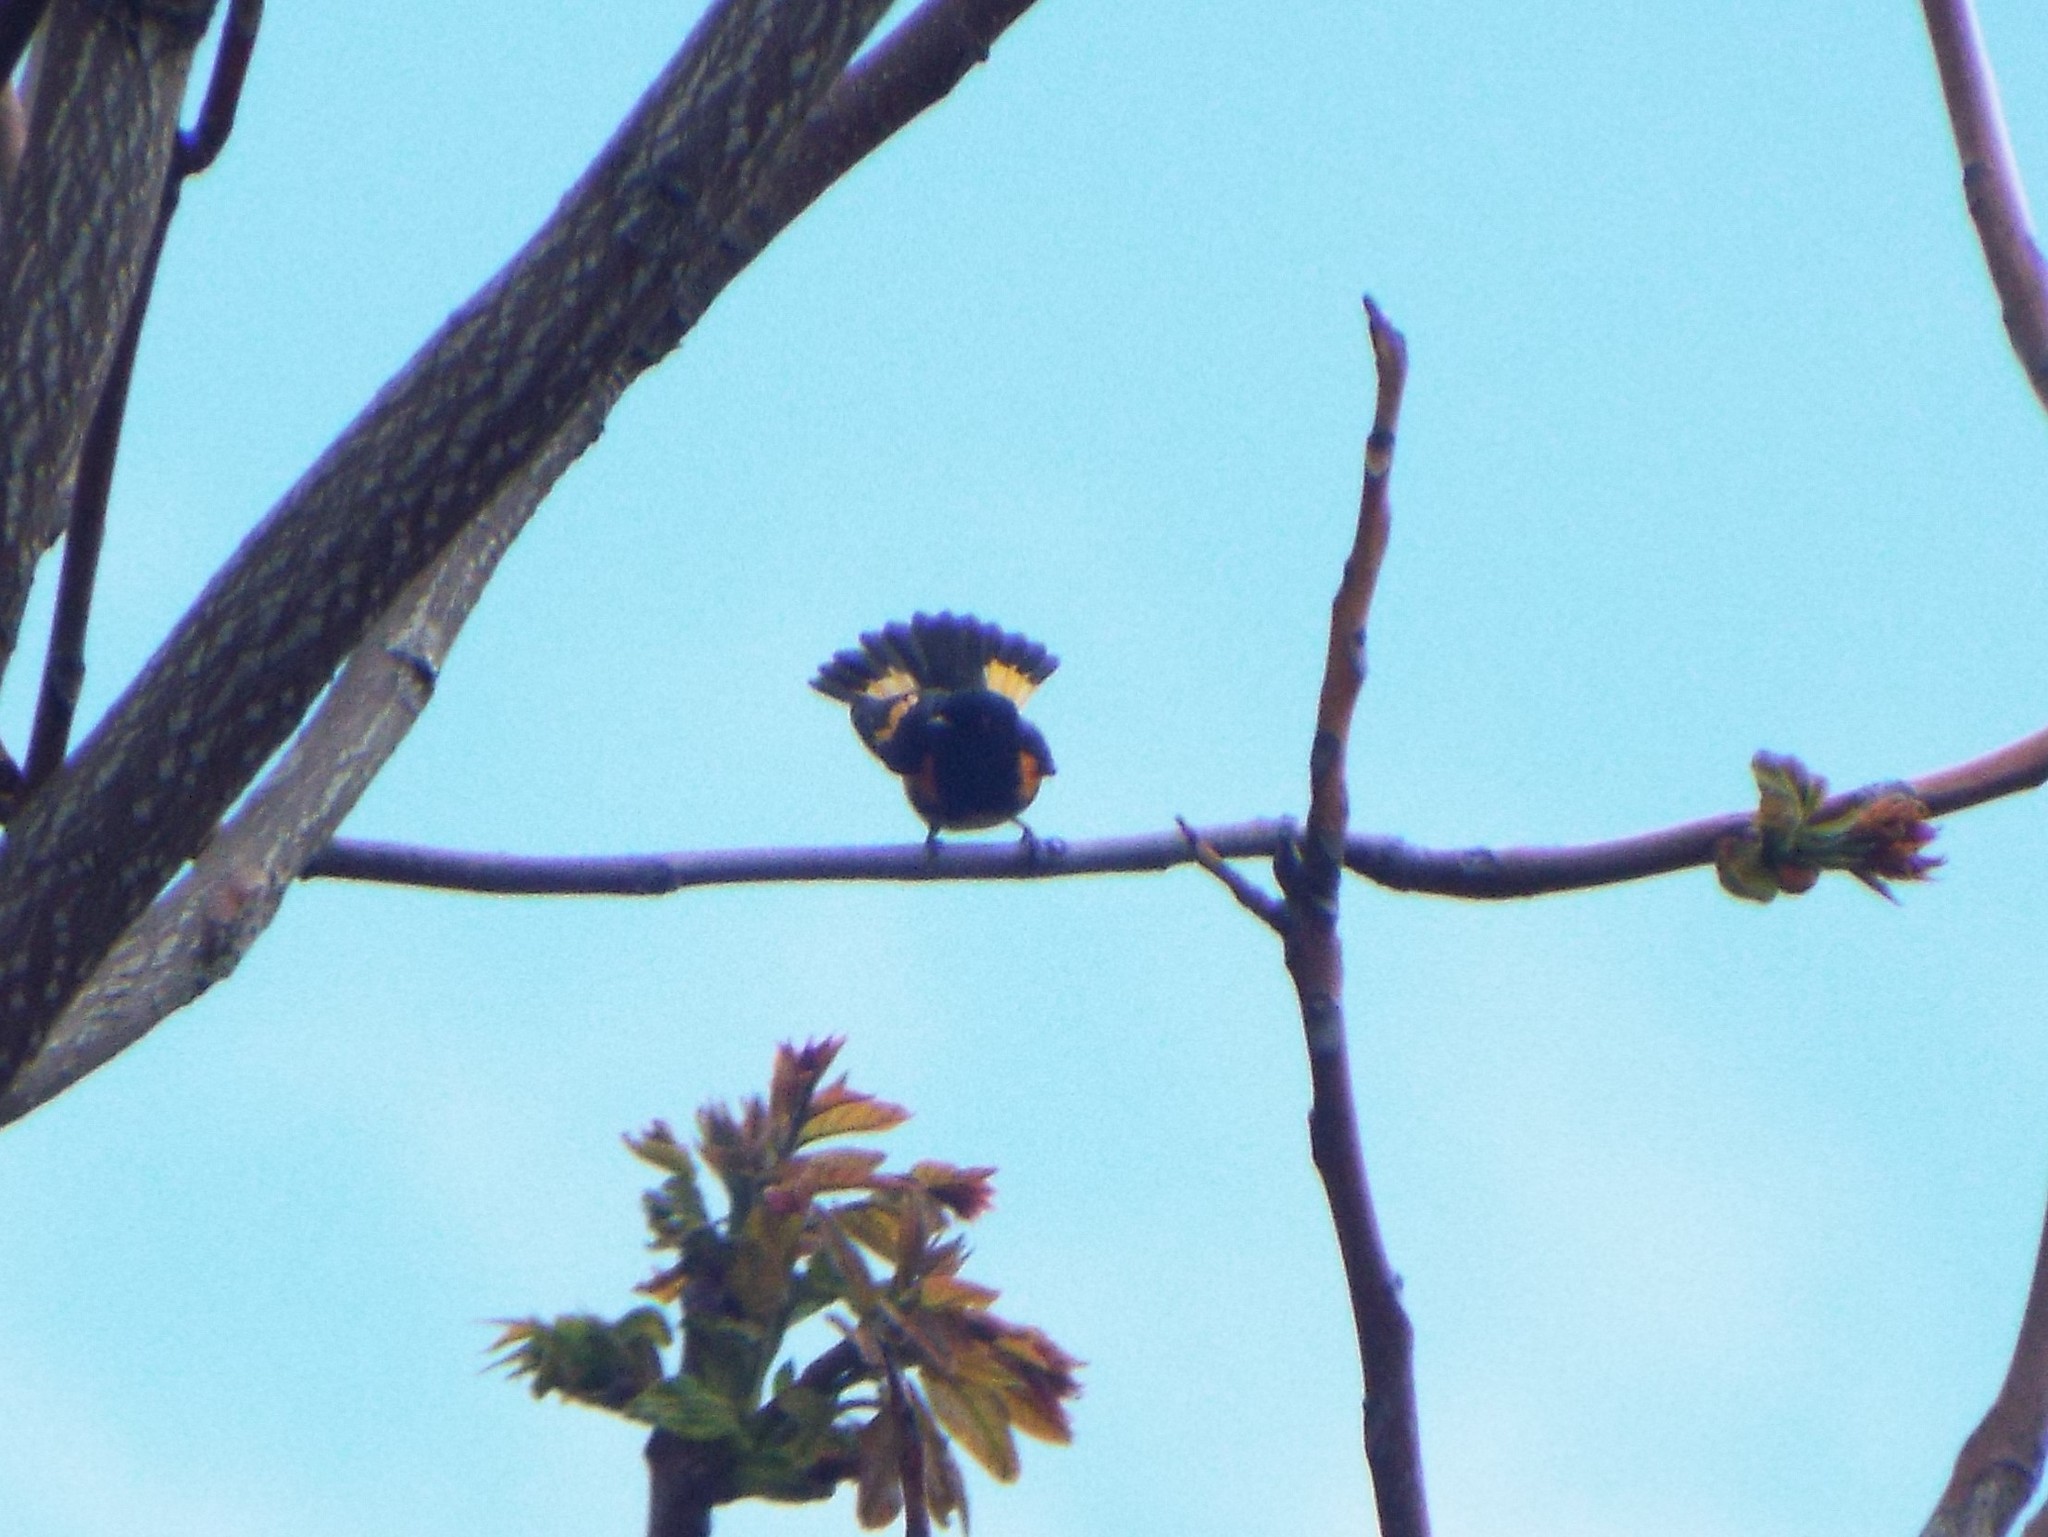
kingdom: Animalia
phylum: Chordata
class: Aves
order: Passeriformes
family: Parulidae
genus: Setophaga
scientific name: Setophaga ruticilla
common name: American redstart
